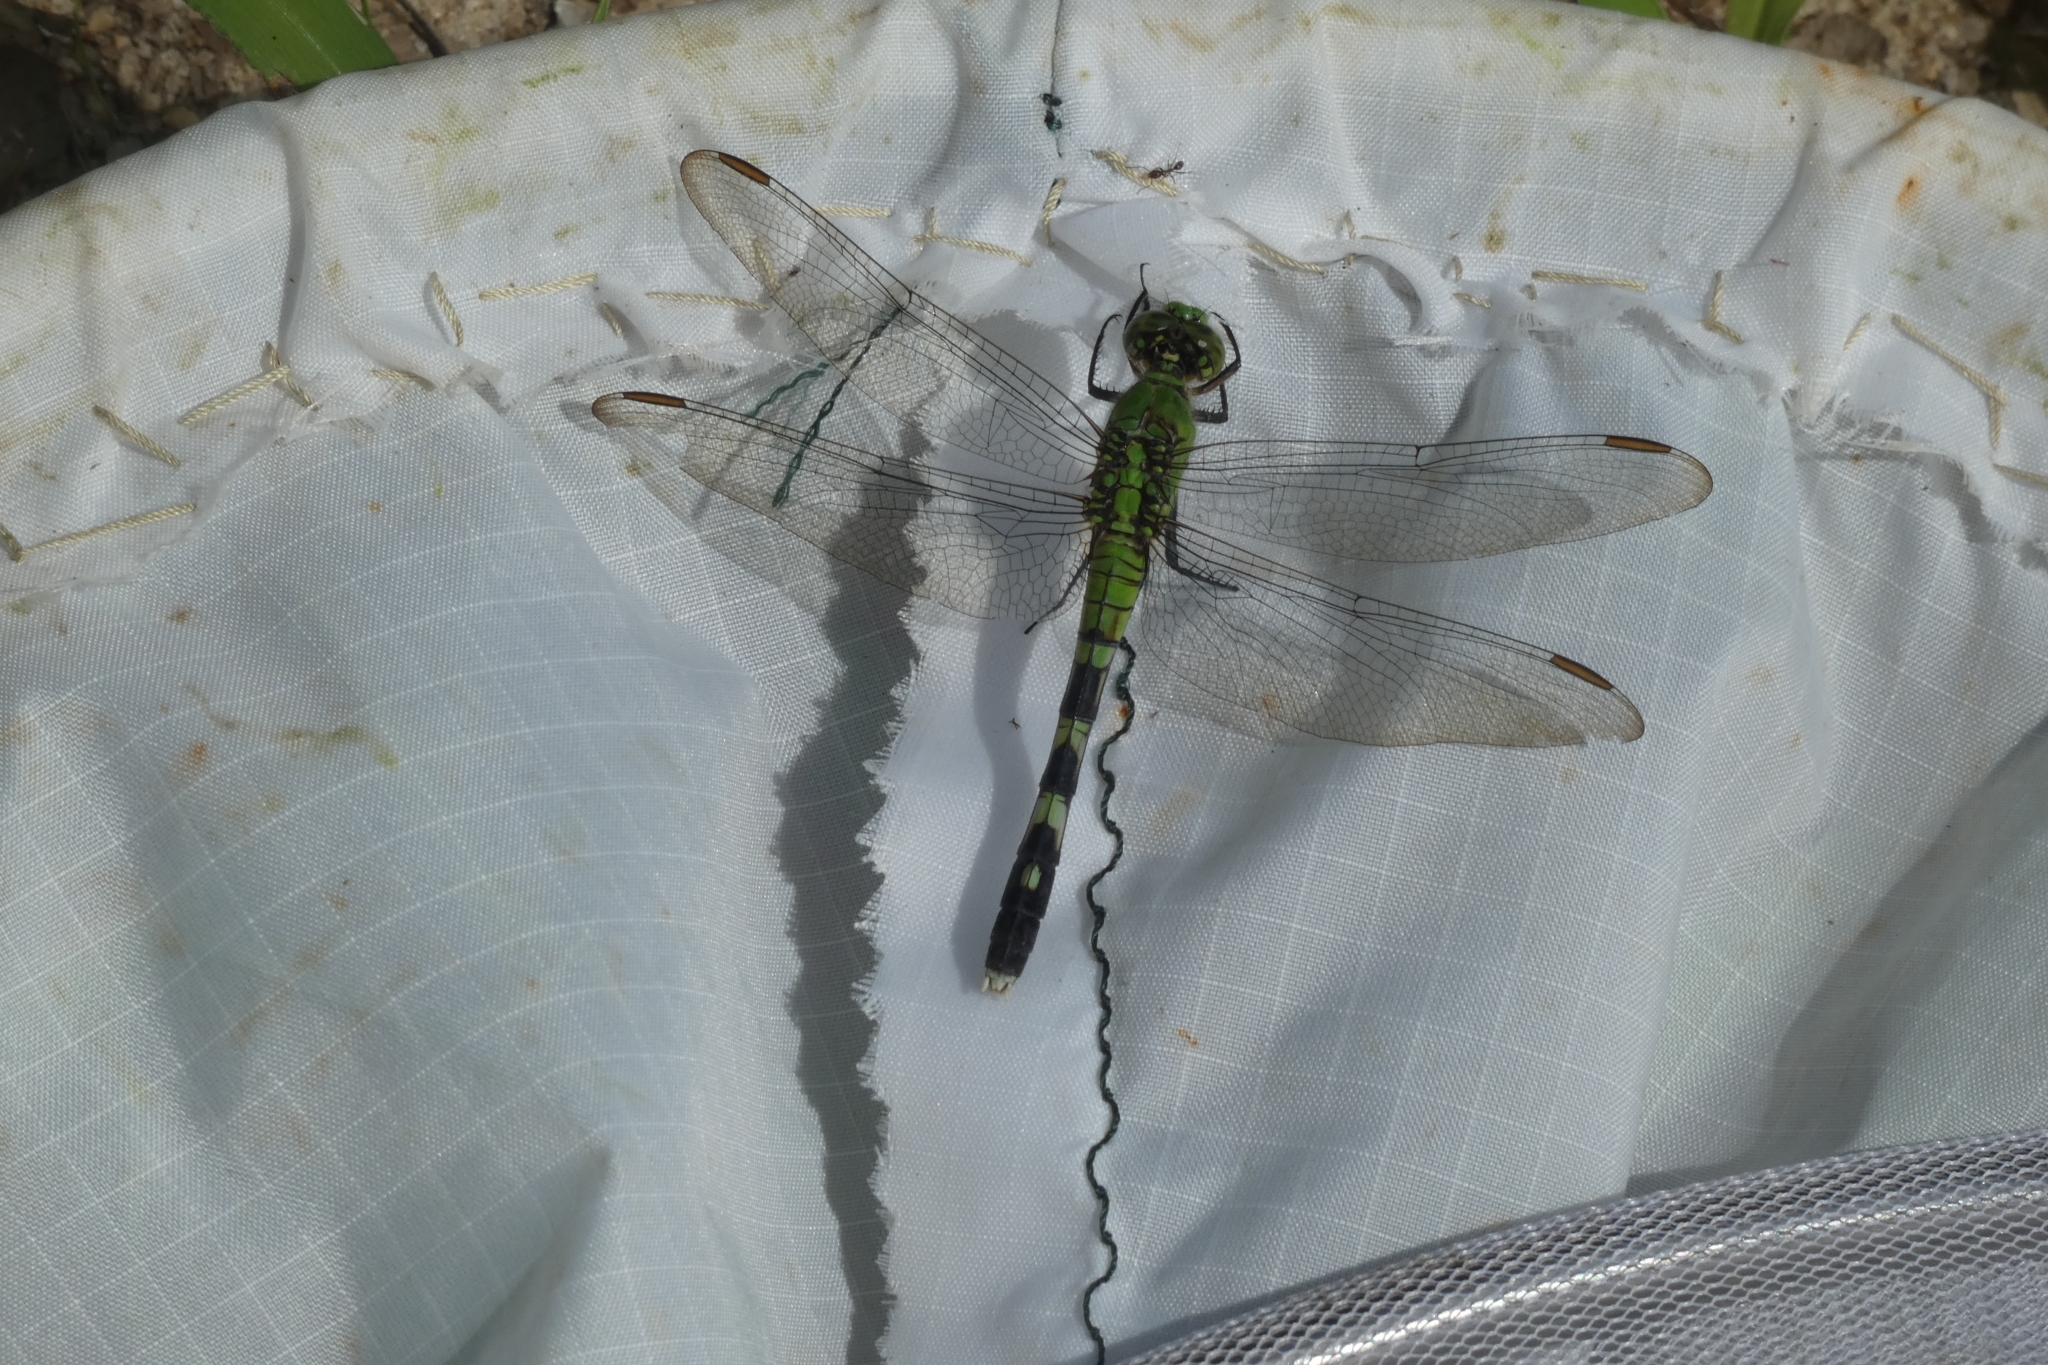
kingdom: Animalia
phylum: Arthropoda
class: Insecta
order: Odonata
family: Libellulidae
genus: Erythemis
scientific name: Erythemis simplicicollis
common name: Eastern pondhawk
